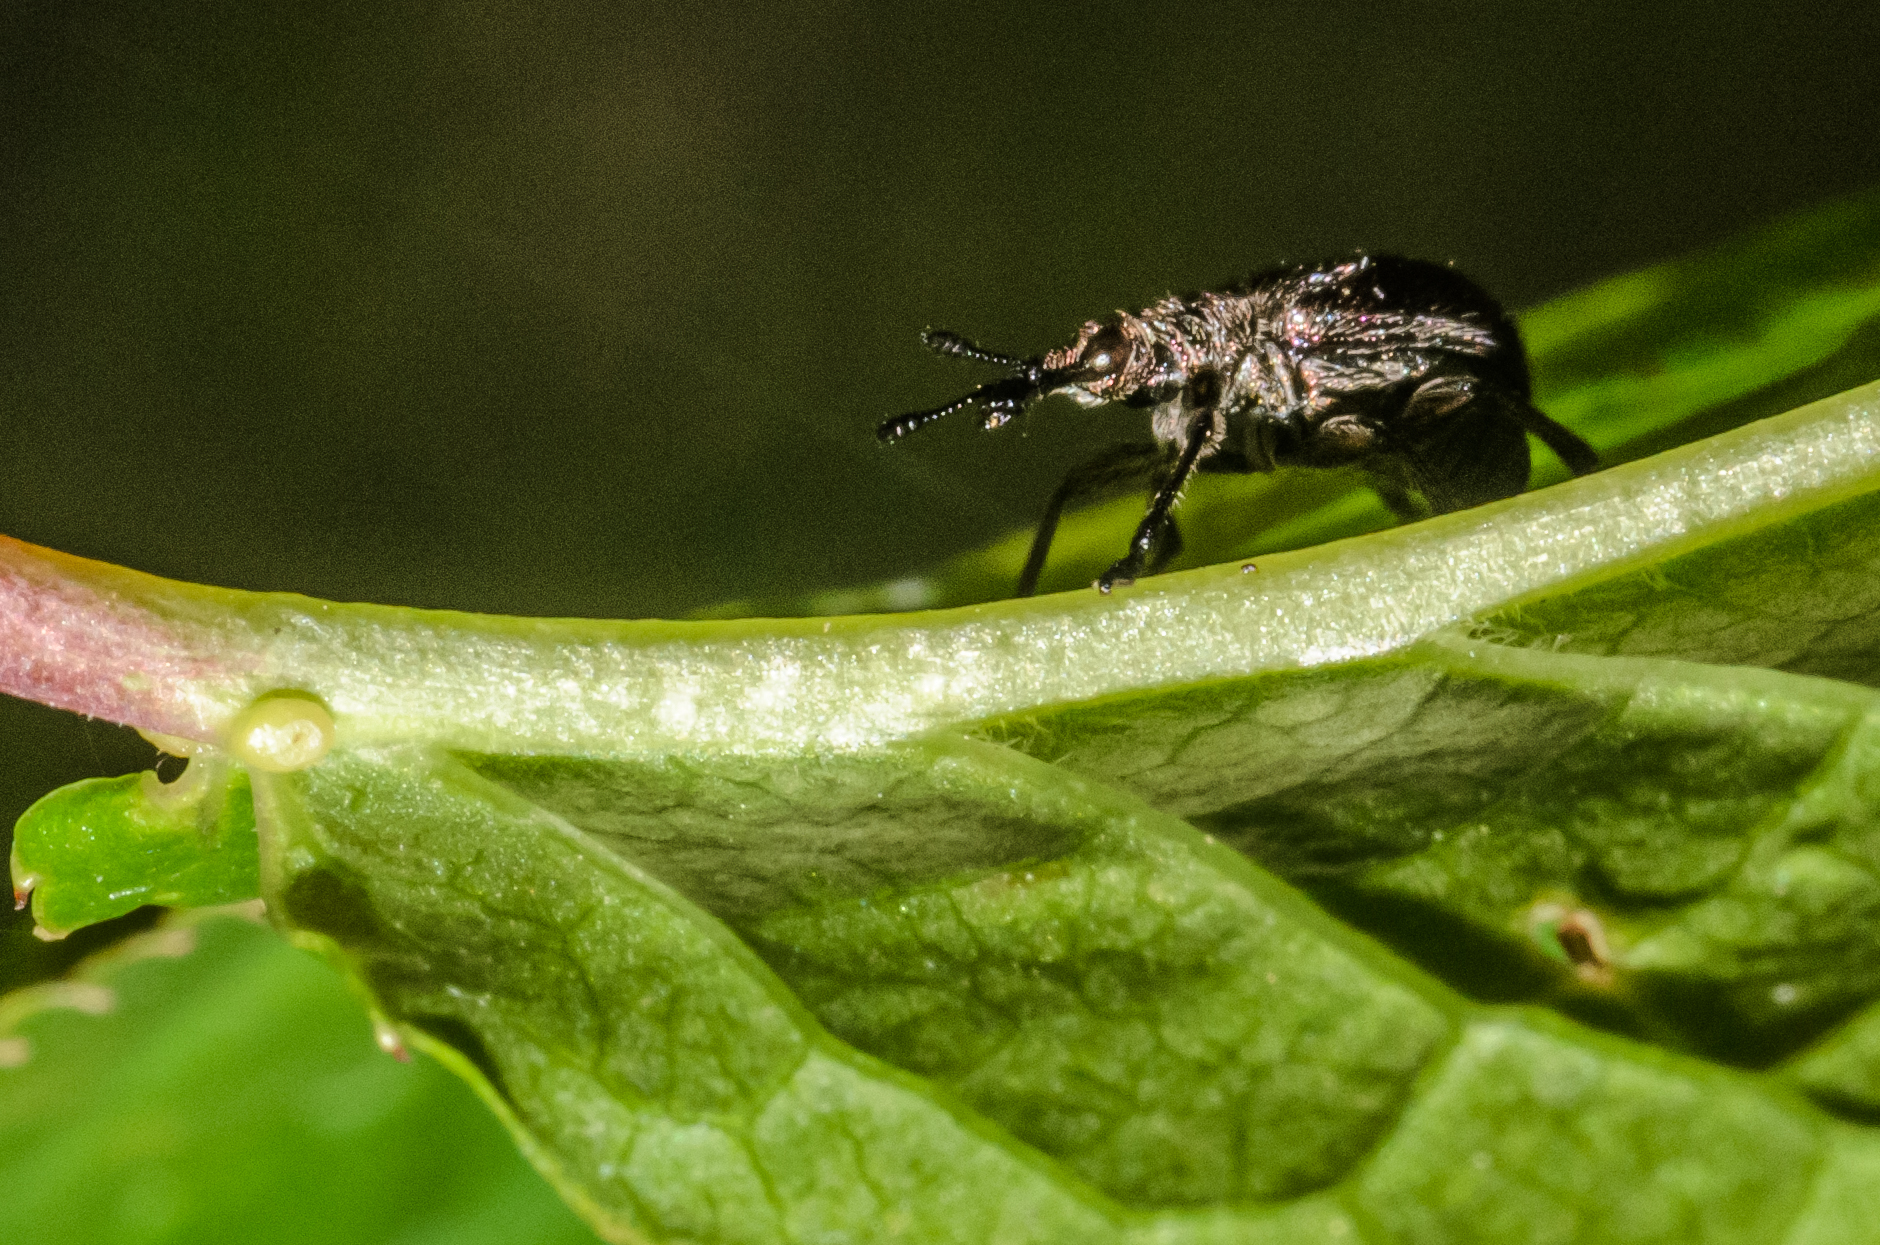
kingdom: Animalia
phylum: Arthropoda
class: Insecta
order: Coleoptera
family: Attelabidae
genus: Involvulus
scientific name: Involvulus cupreus
